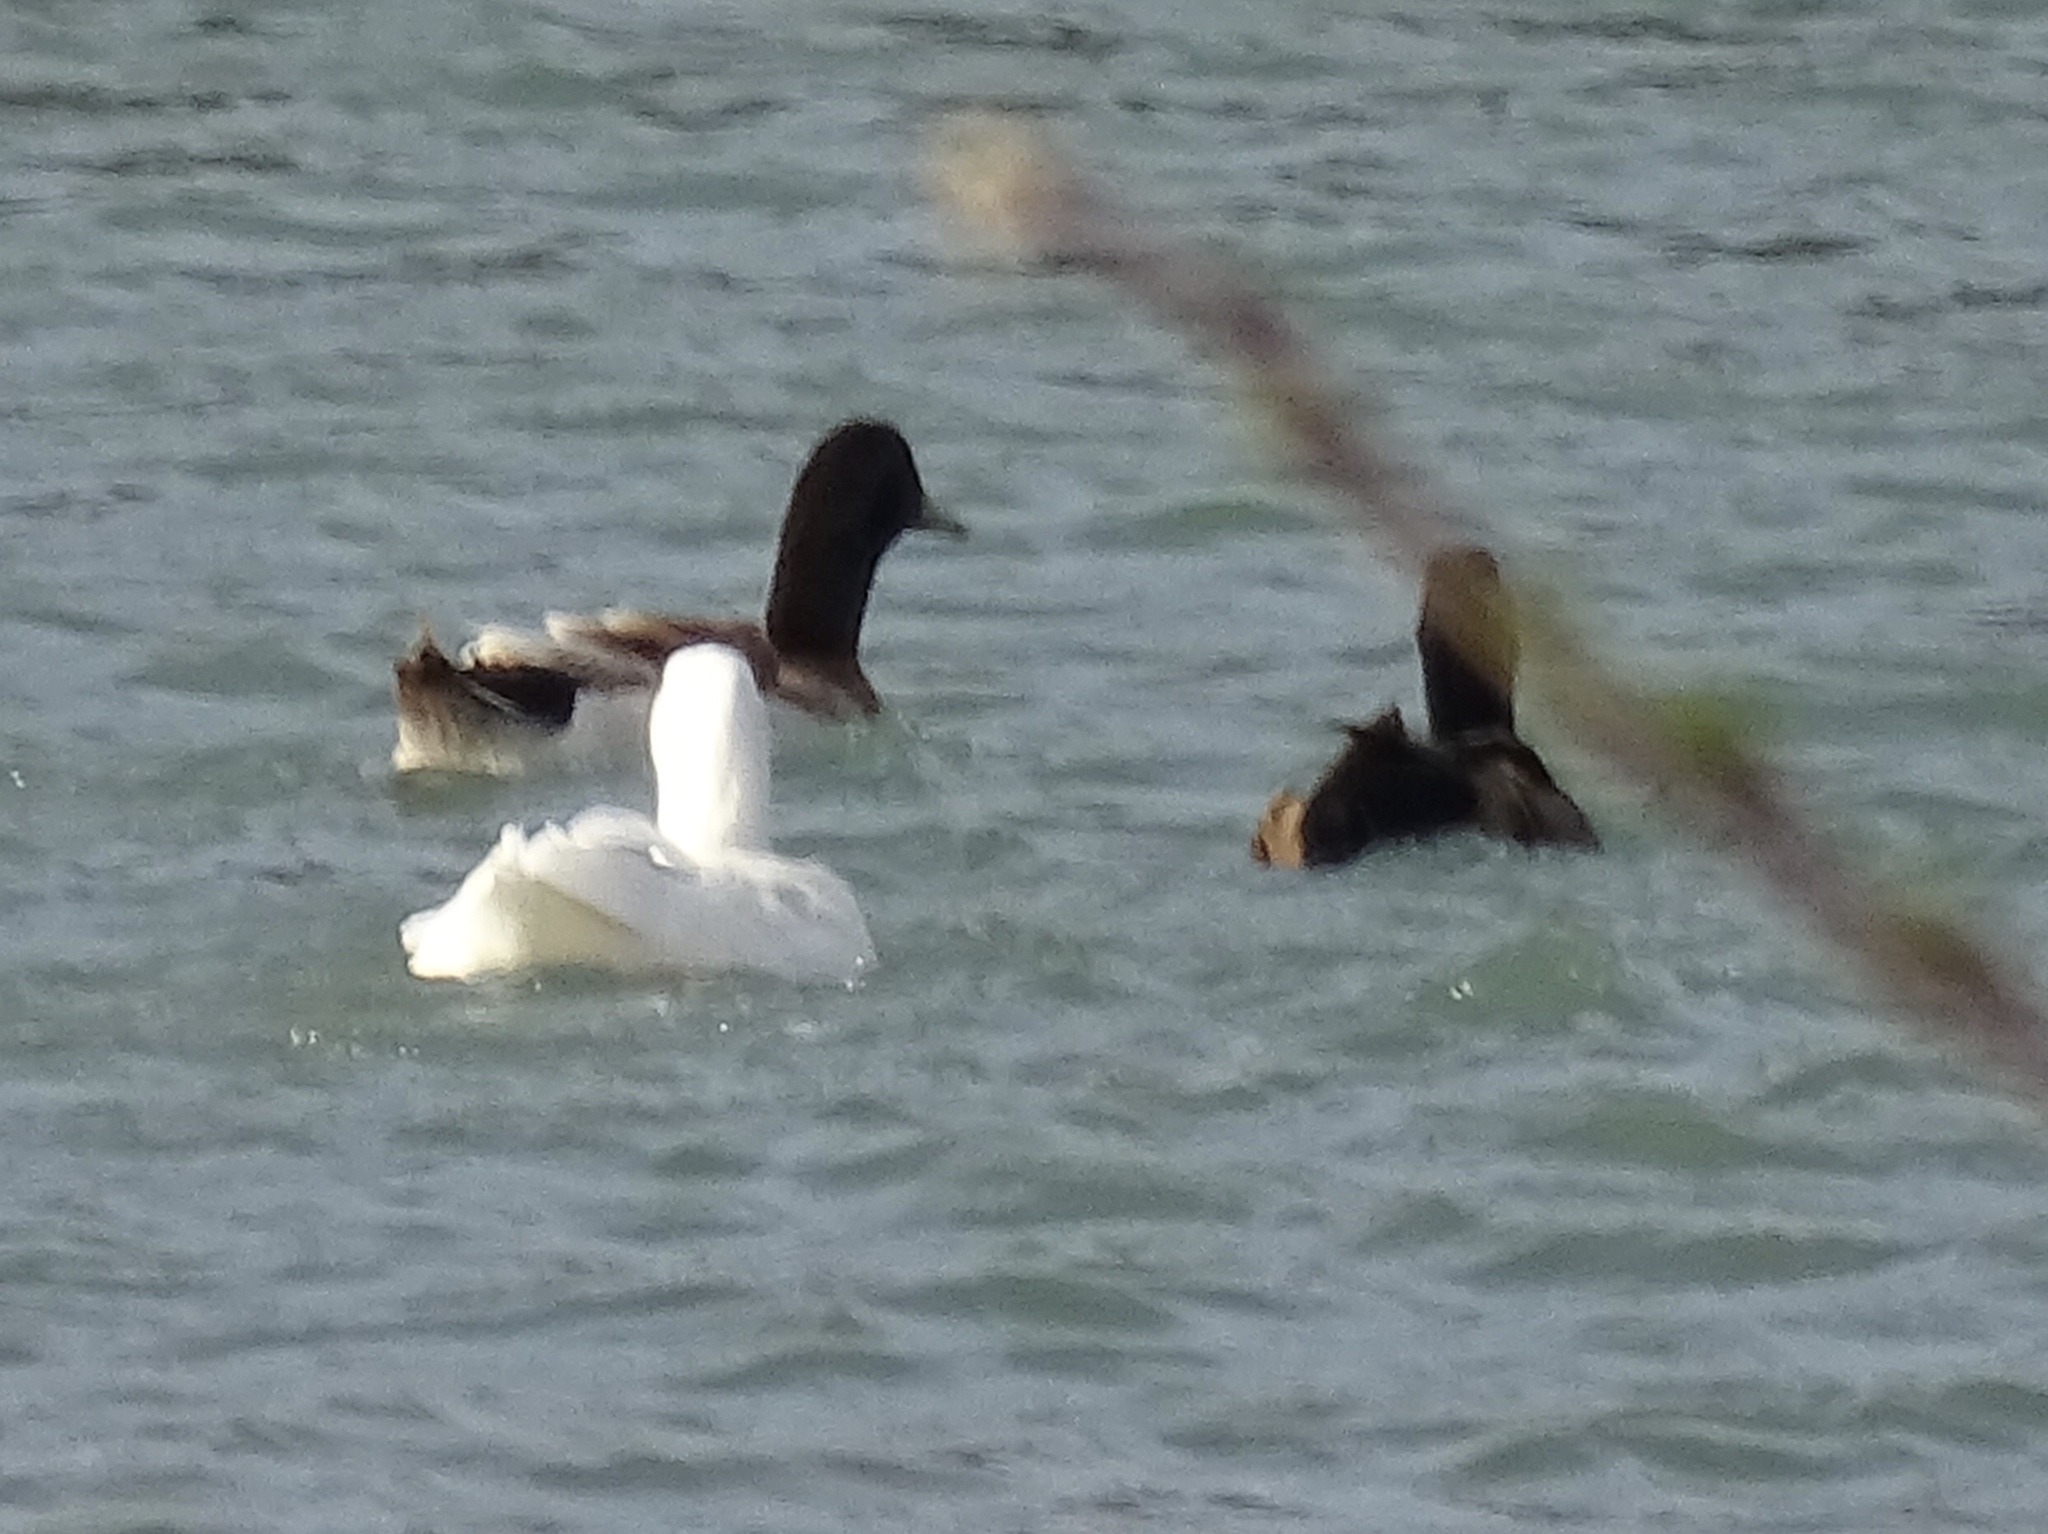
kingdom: Animalia
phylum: Chordata
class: Aves
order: Anseriformes
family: Anatidae
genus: Anas
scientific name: Anas platyrhynchos
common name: Mallard
